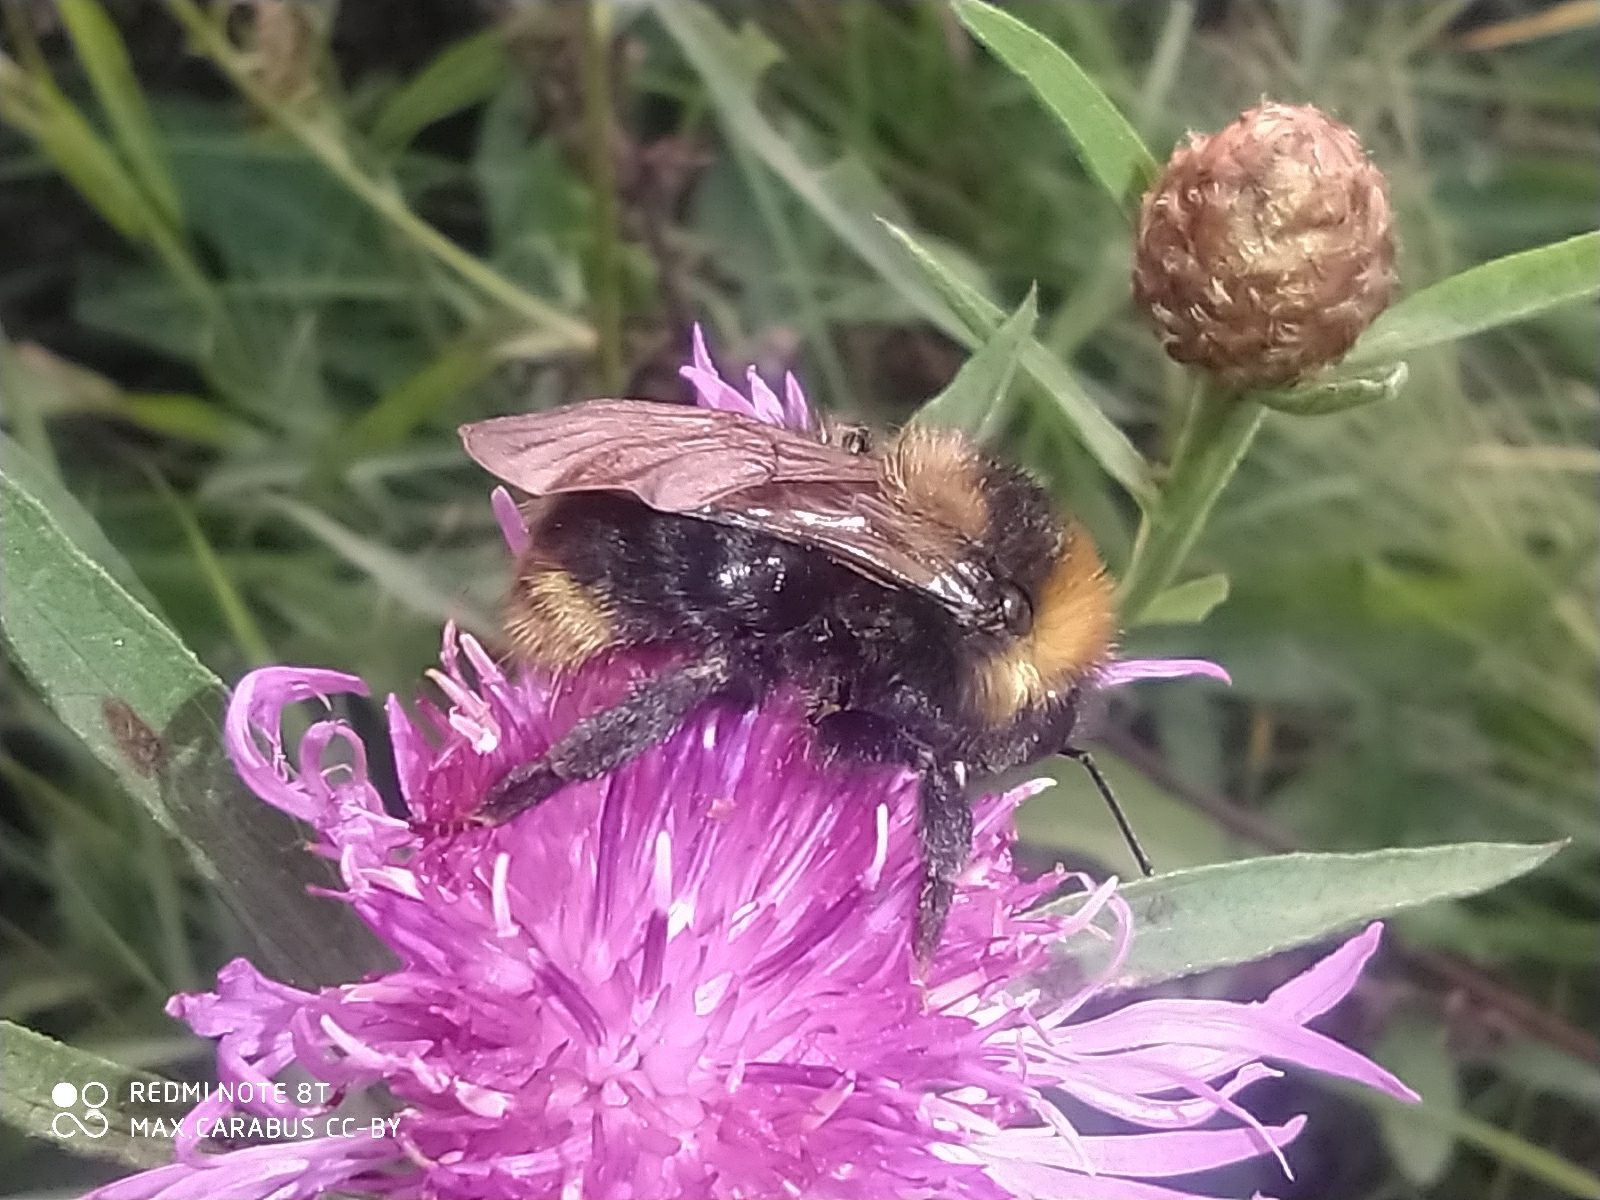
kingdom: Animalia
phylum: Arthropoda
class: Insecta
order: Hymenoptera
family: Apidae
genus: Bombus
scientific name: Bombus campestris
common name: Field cuckoo-bee
